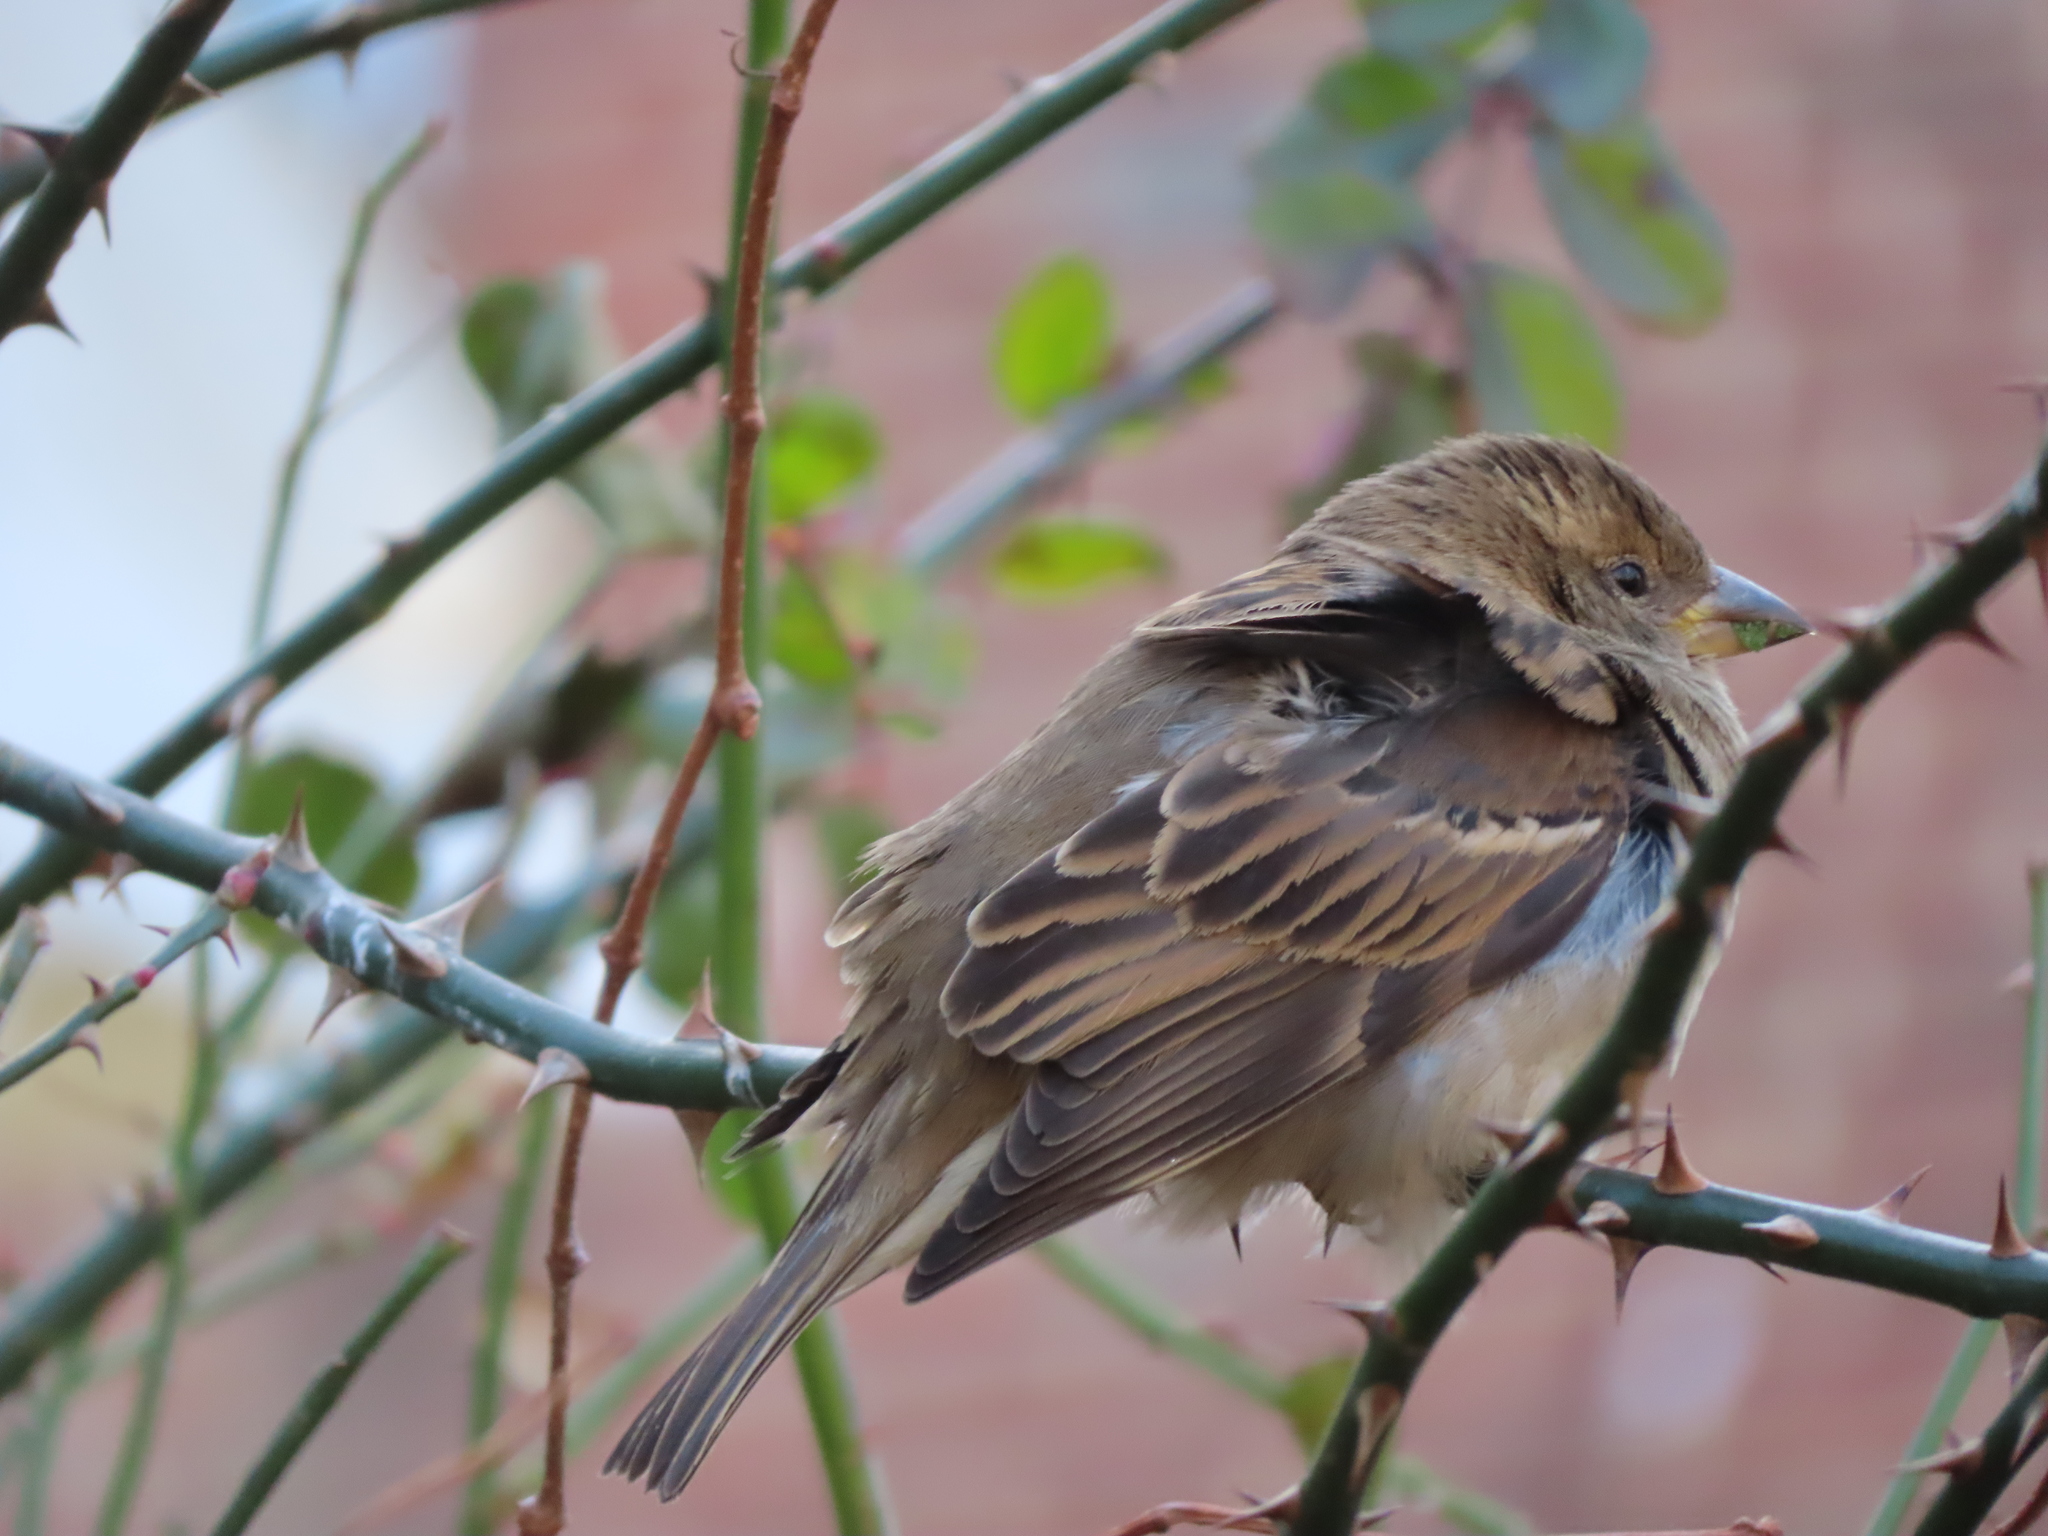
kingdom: Animalia
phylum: Chordata
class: Aves
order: Passeriformes
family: Passeridae
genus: Passer
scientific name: Passer domesticus
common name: House sparrow
